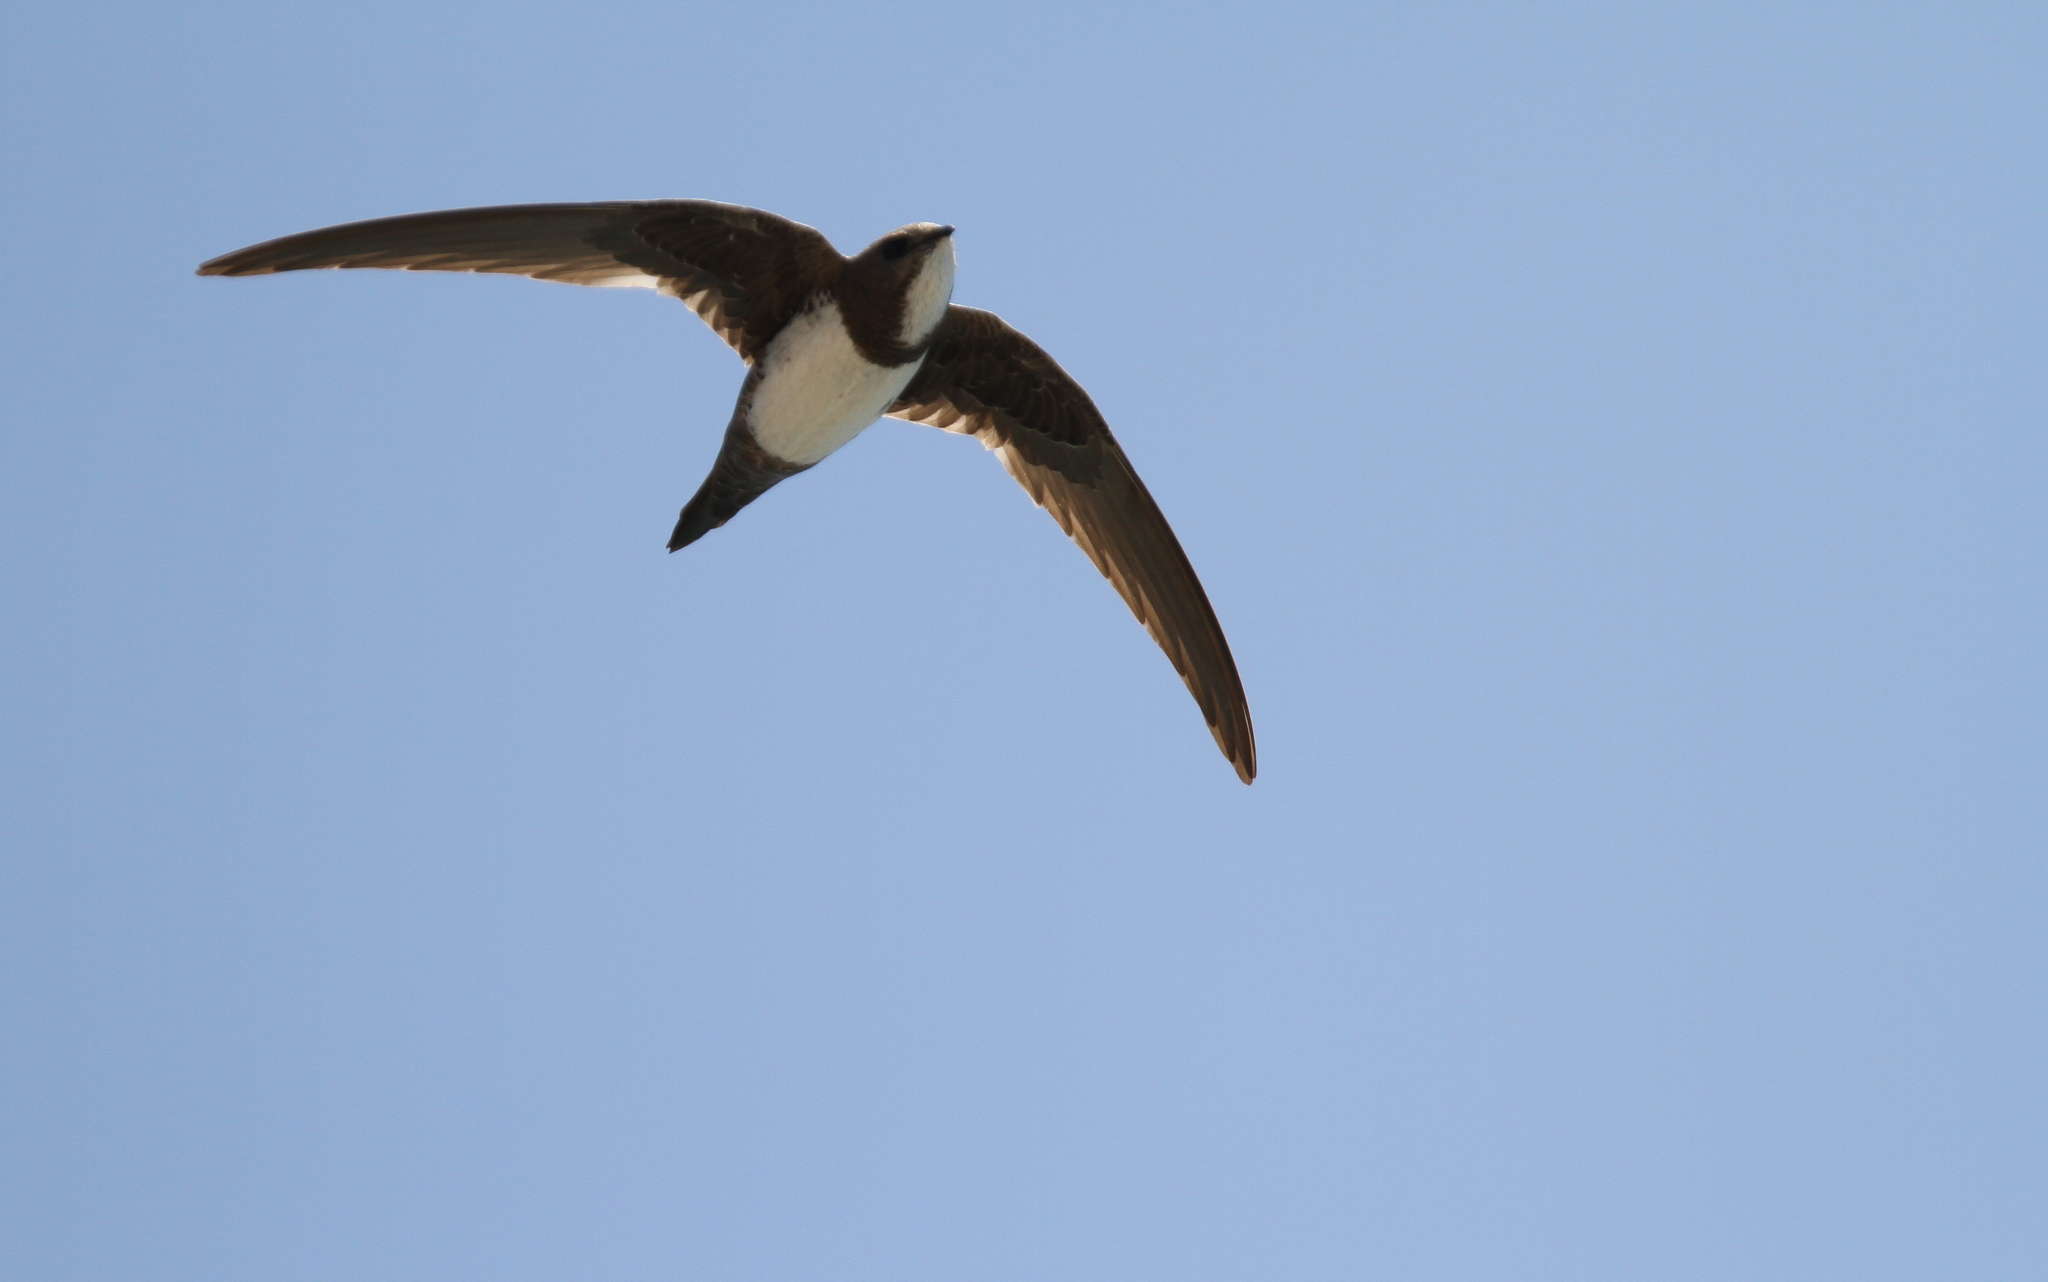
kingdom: Animalia
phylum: Chordata
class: Aves
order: Apodiformes
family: Apodidae
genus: Tachymarptis
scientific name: Tachymarptis melba
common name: Alpine swift
